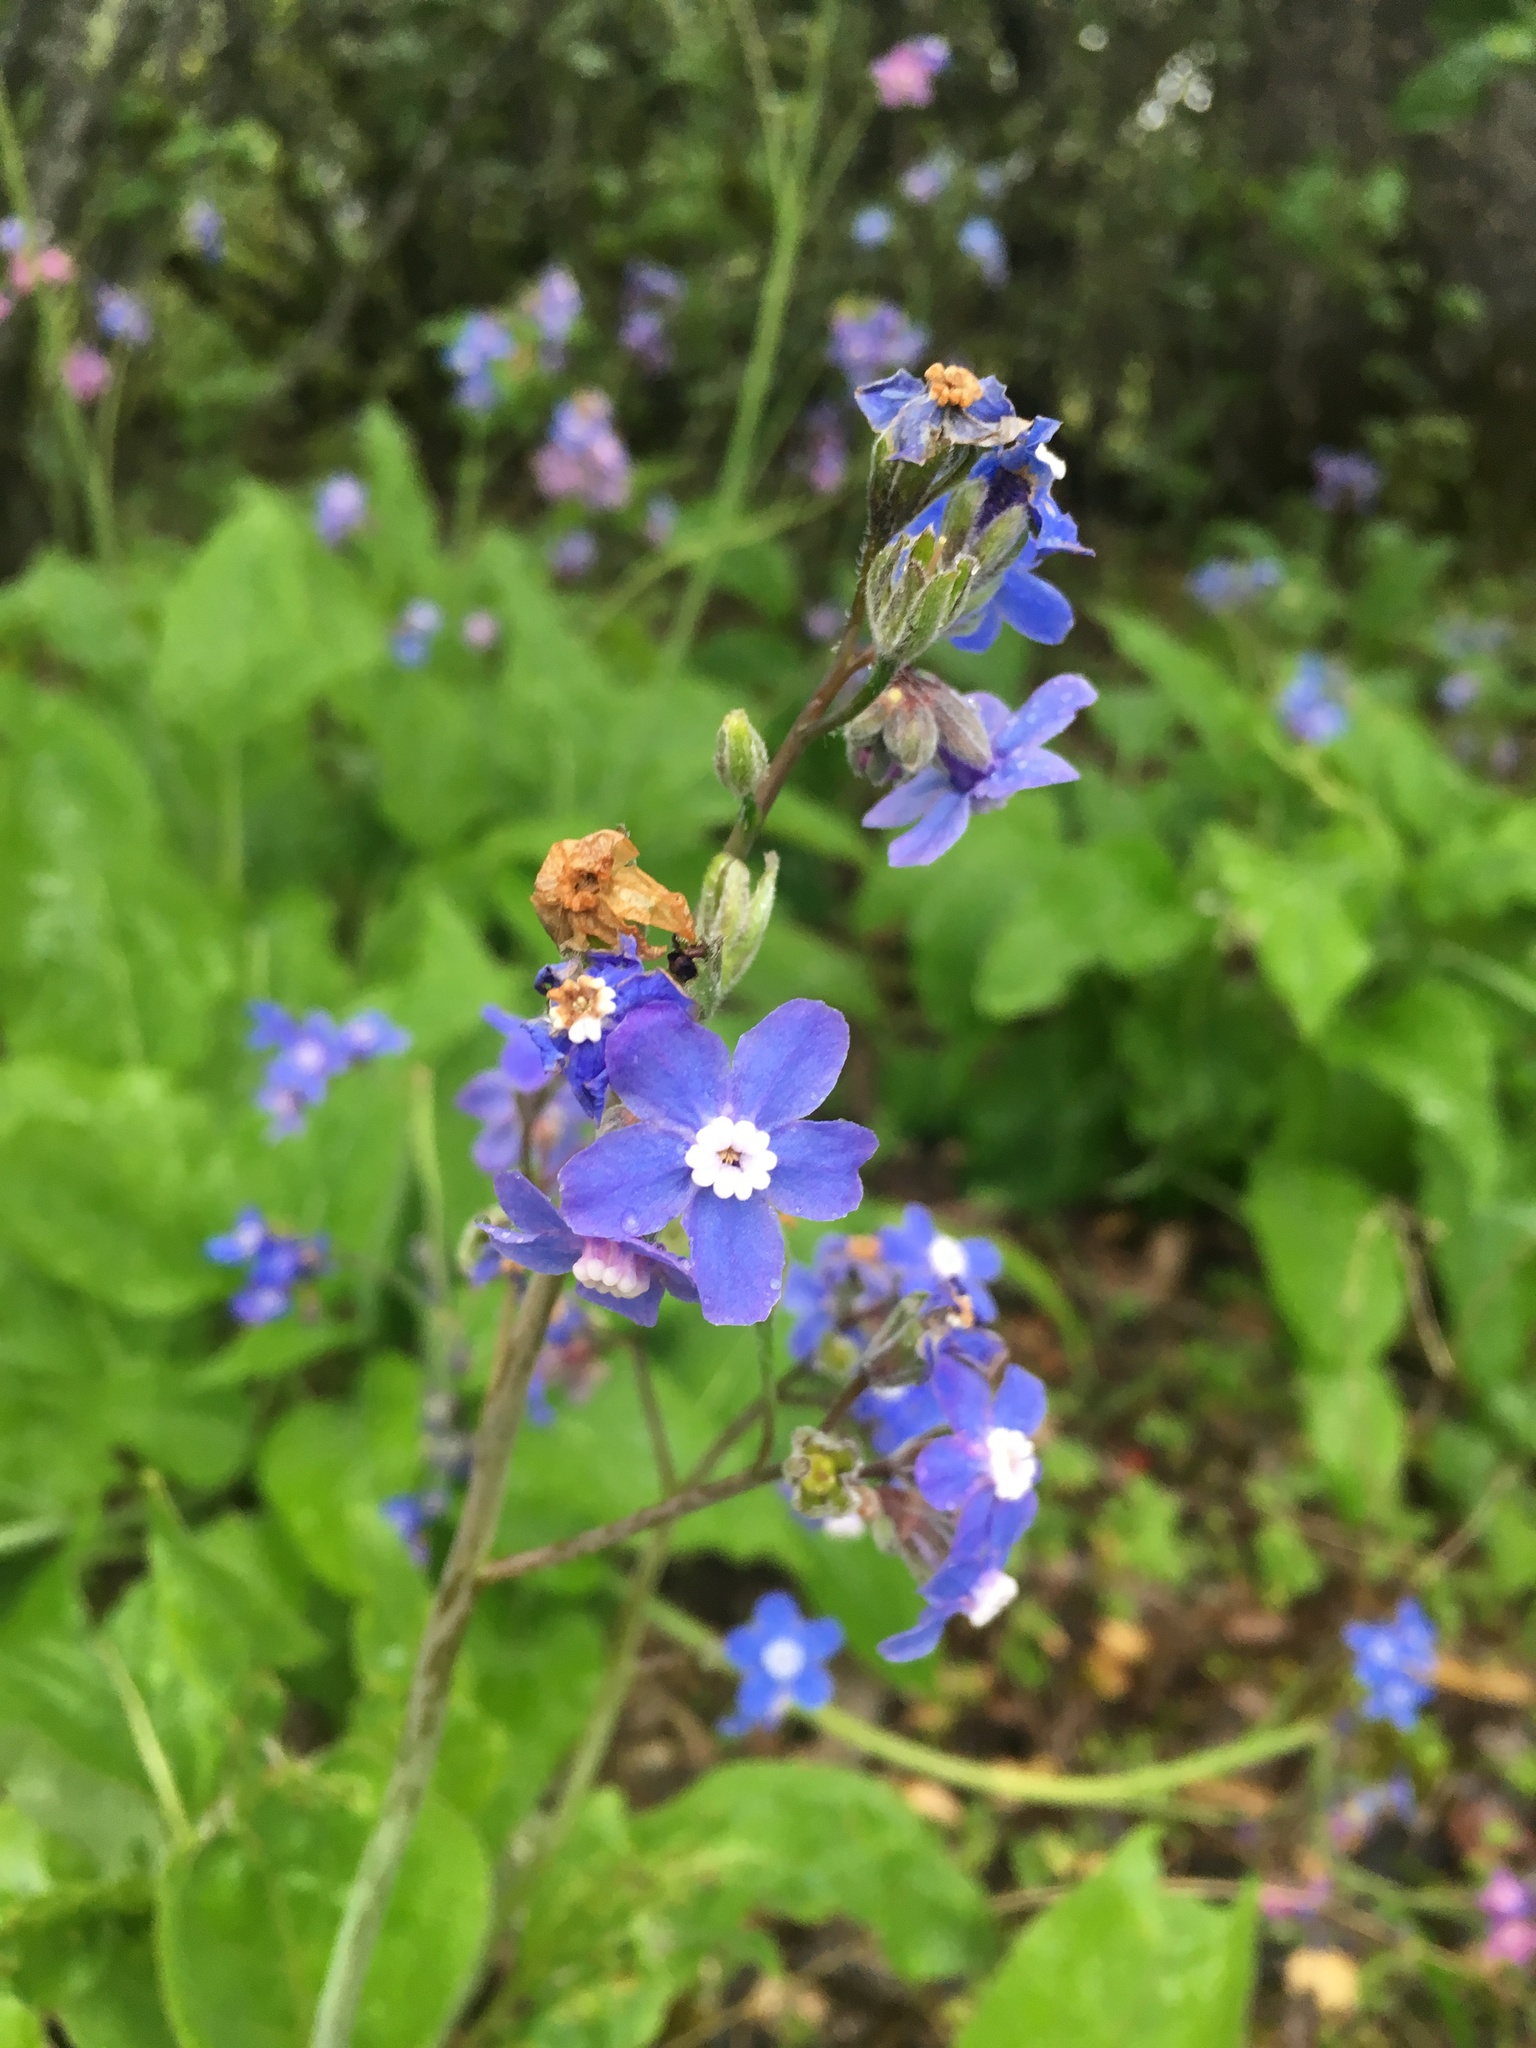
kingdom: Plantae
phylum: Tracheophyta
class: Magnoliopsida
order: Boraginales
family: Boraginaceae
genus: Adelinia
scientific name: Adelinia grande
